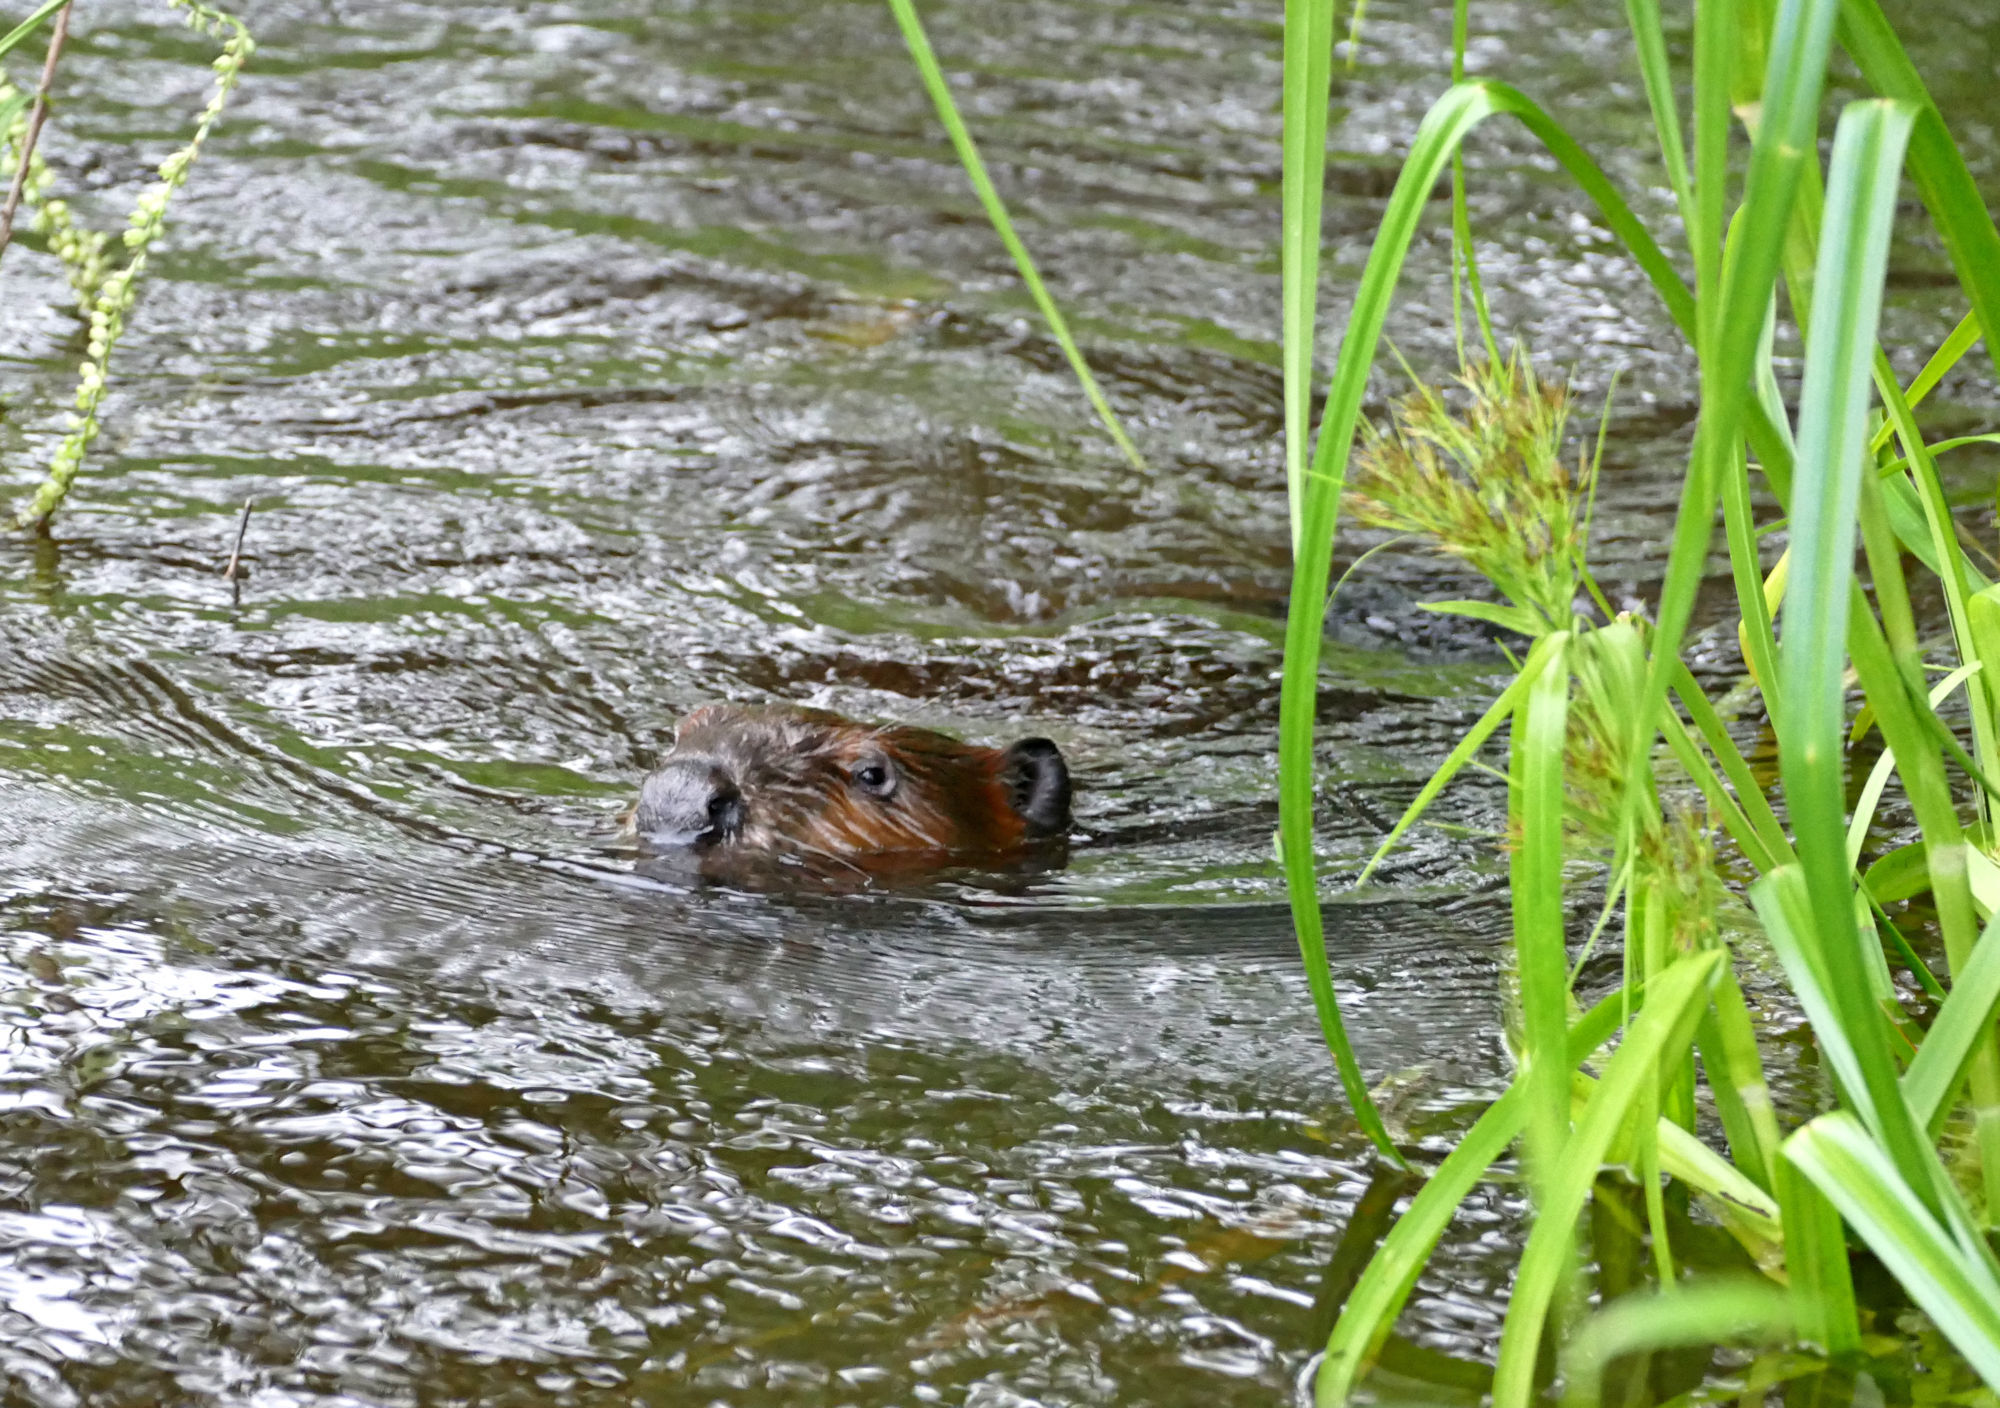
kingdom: Animalia
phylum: Chordata
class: Mammalia
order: Rodentia
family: Castoridae
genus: Castor
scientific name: Castor canadensis
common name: American beaver
